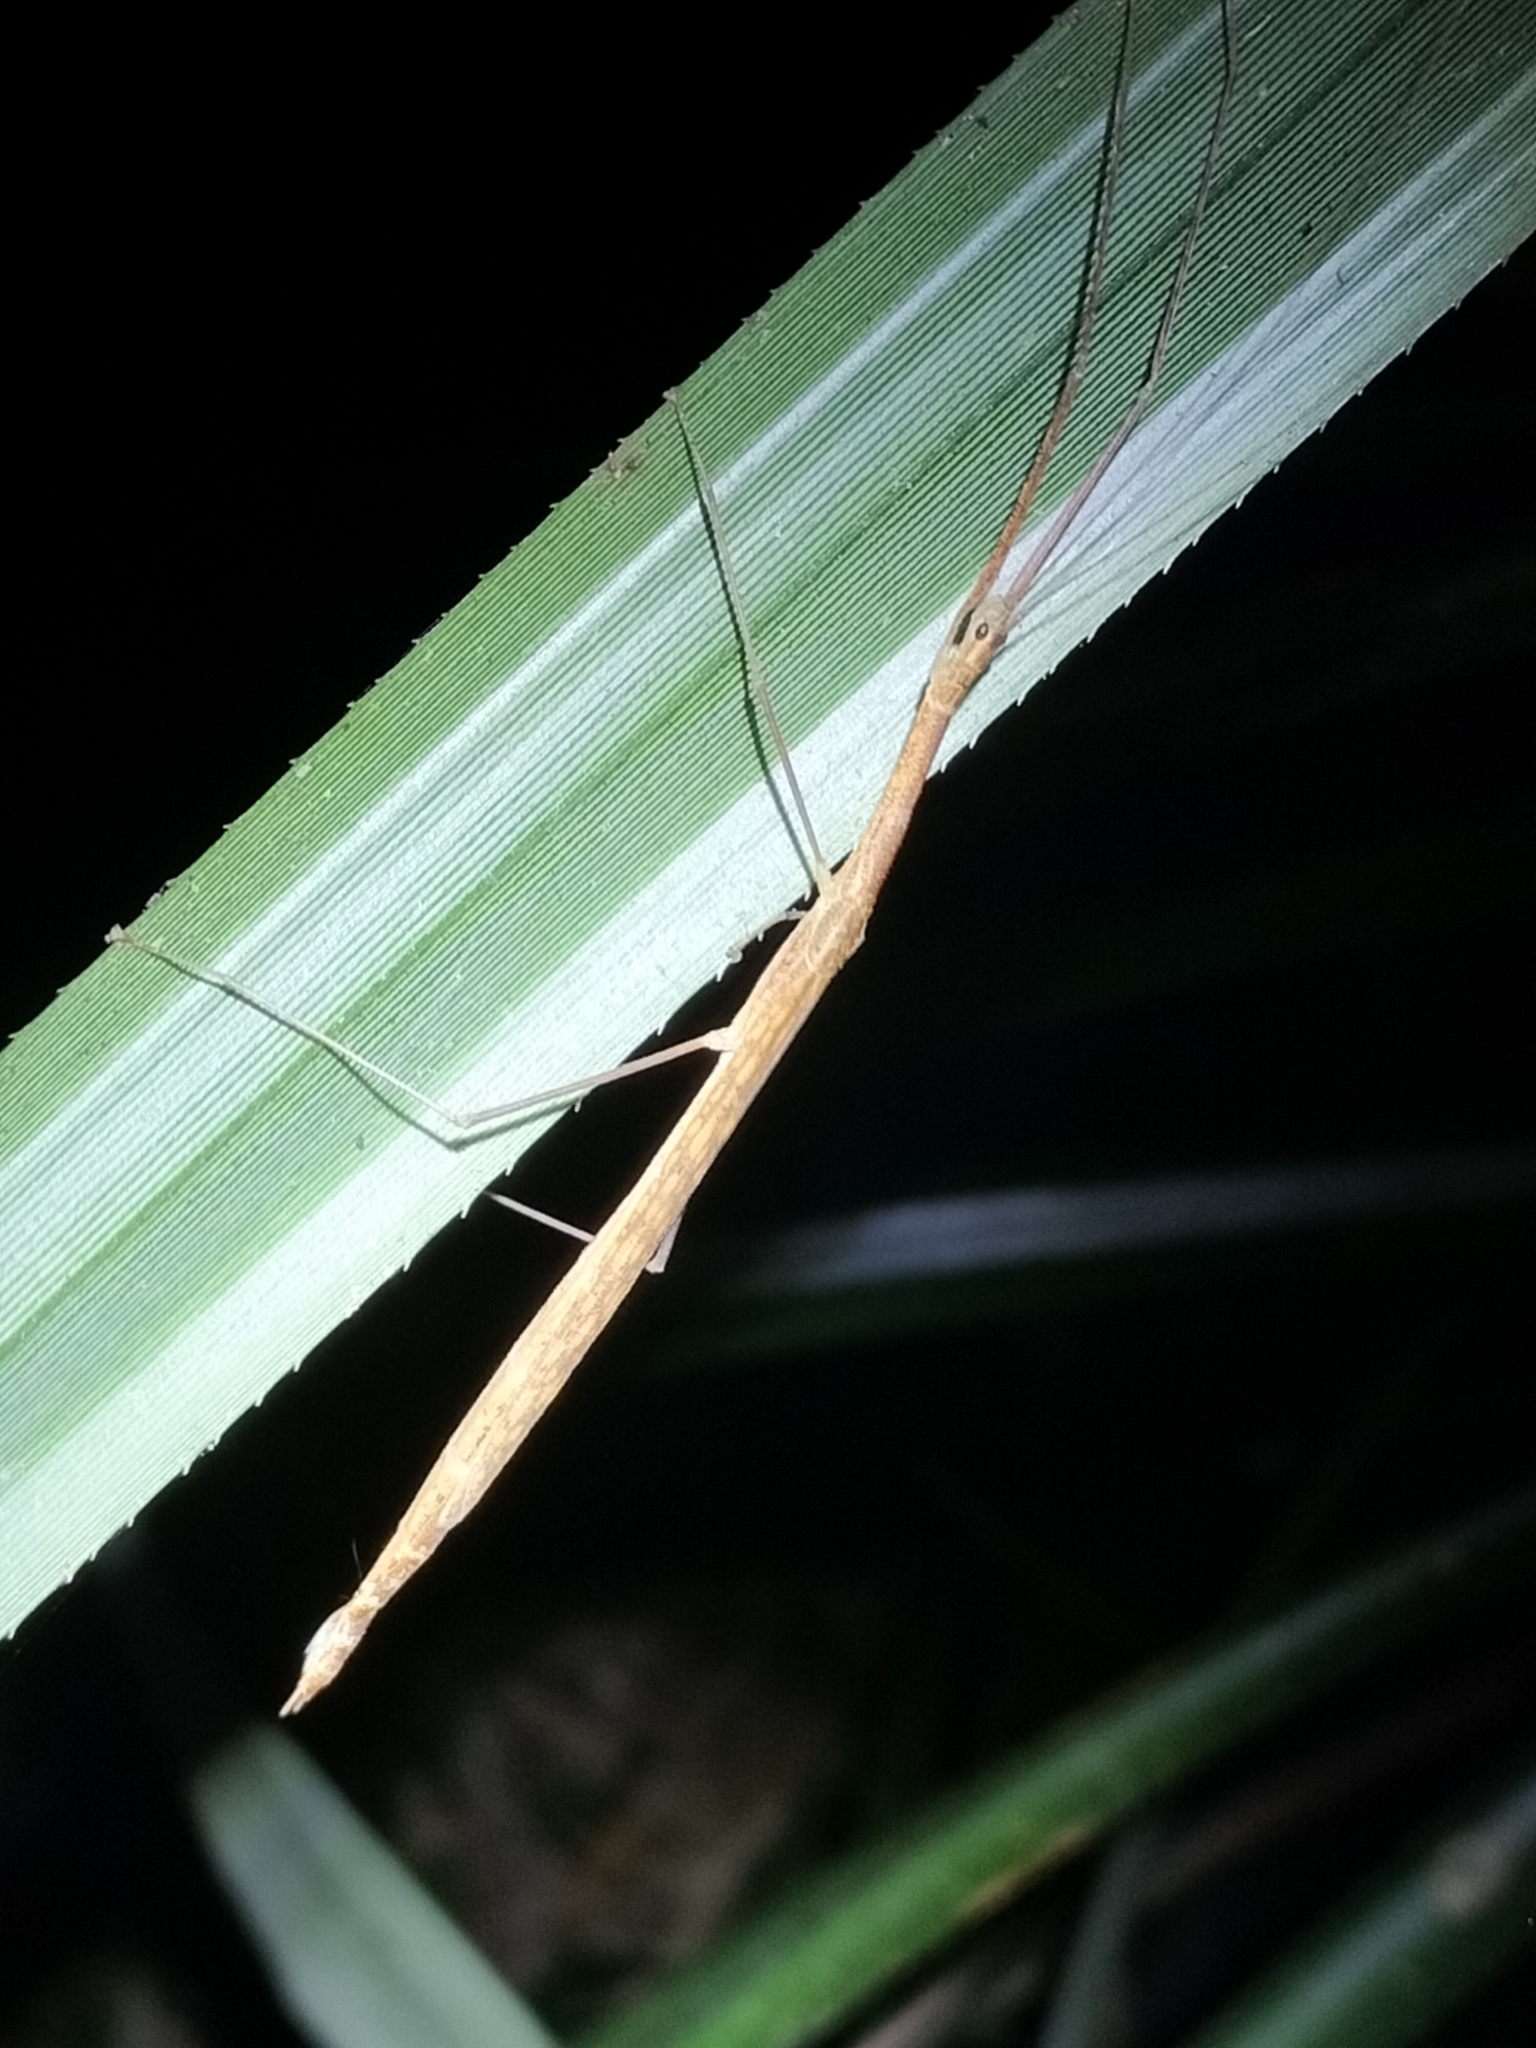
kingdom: Animalia
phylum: Arthropoda
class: Insecta
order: Phasmida
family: Lonchodidae
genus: Sipyloidea
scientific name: Sipyloidea caeca
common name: Confused winged stick-insect
